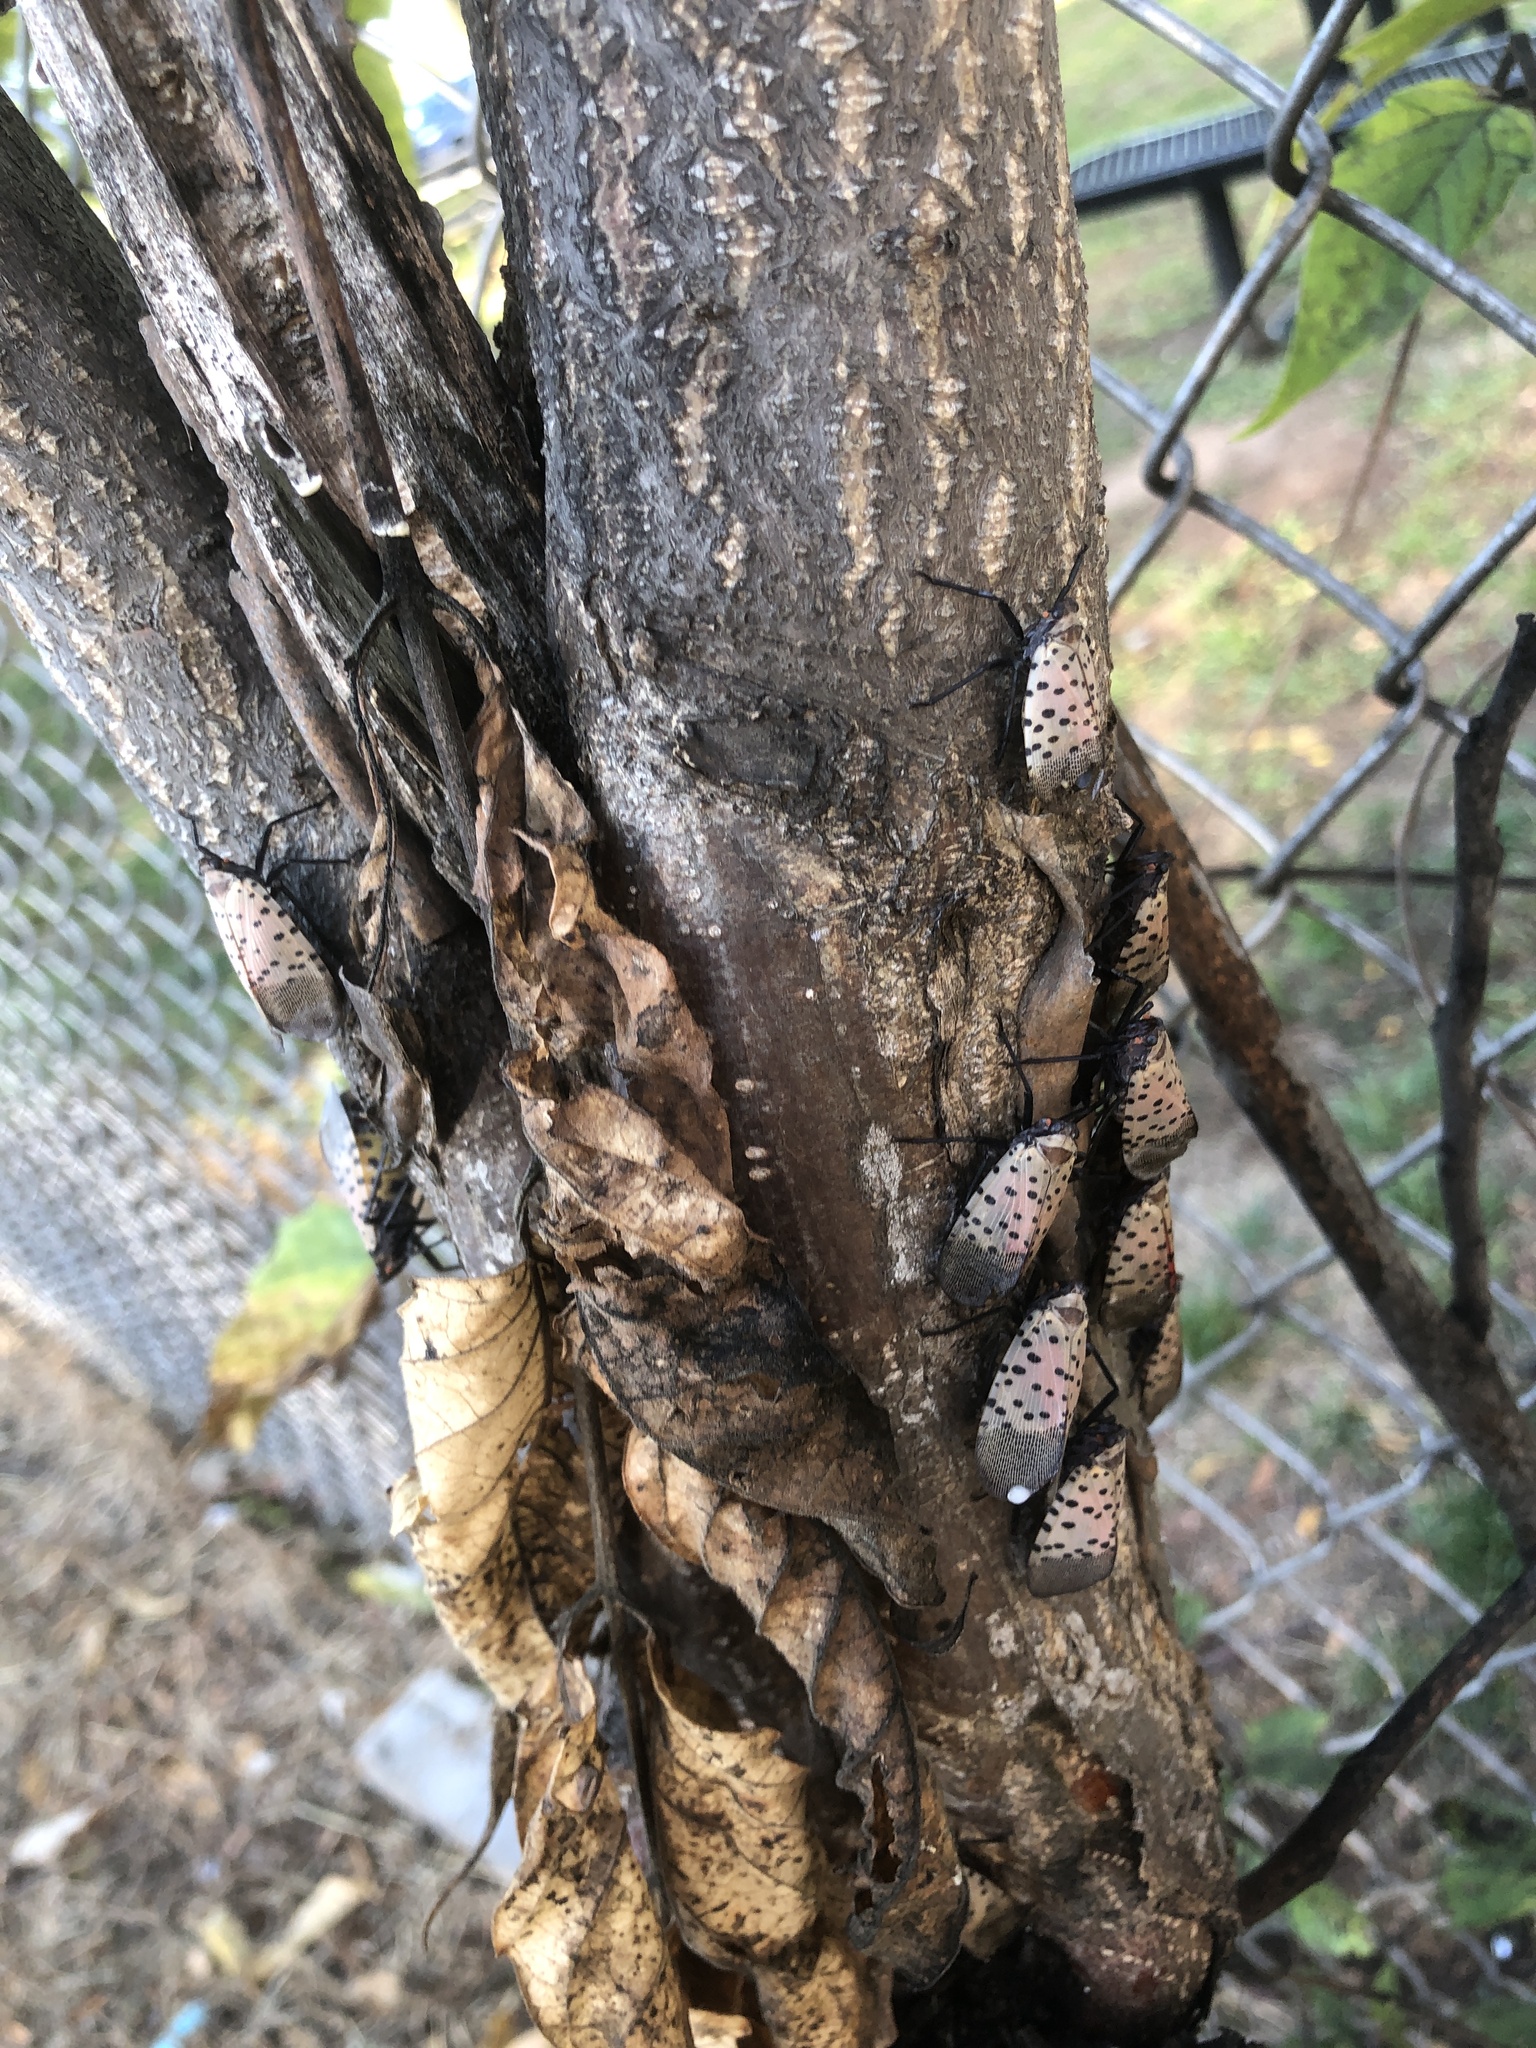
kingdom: Animalia
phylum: Arthropoda
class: Insecta
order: Hemiptera
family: Fulgoridae
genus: Lycorma
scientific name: Lycorma delicatula
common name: Spotted lanternfly
